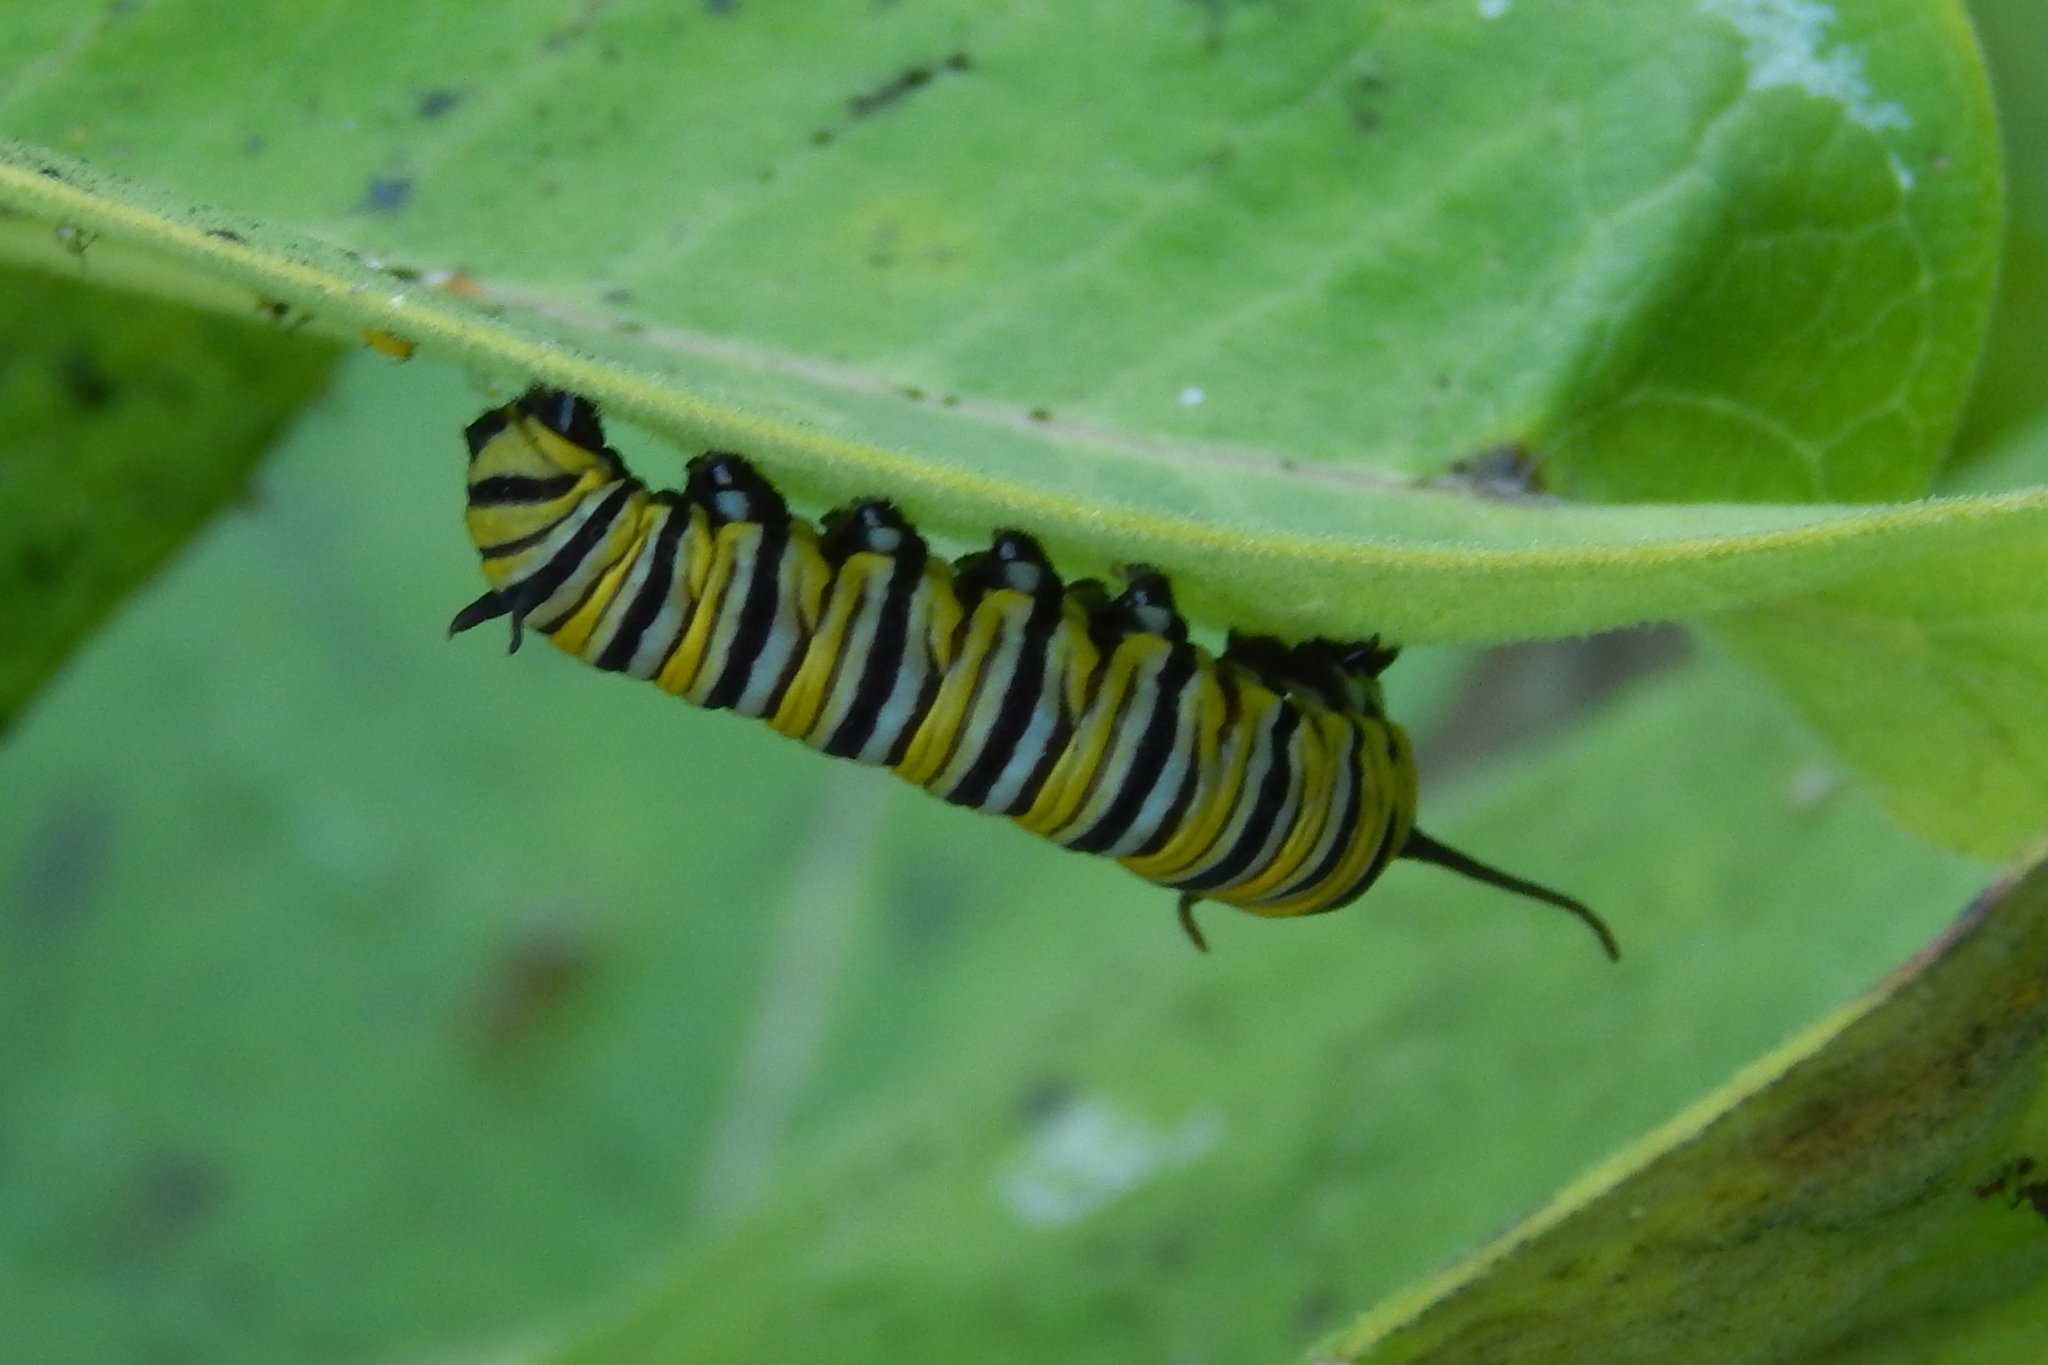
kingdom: Animalia
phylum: Arthropoda
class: Insecta
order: Lepidoptera
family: Nymphalidae
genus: Danaus
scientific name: Danaus plexippus
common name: Monarch
